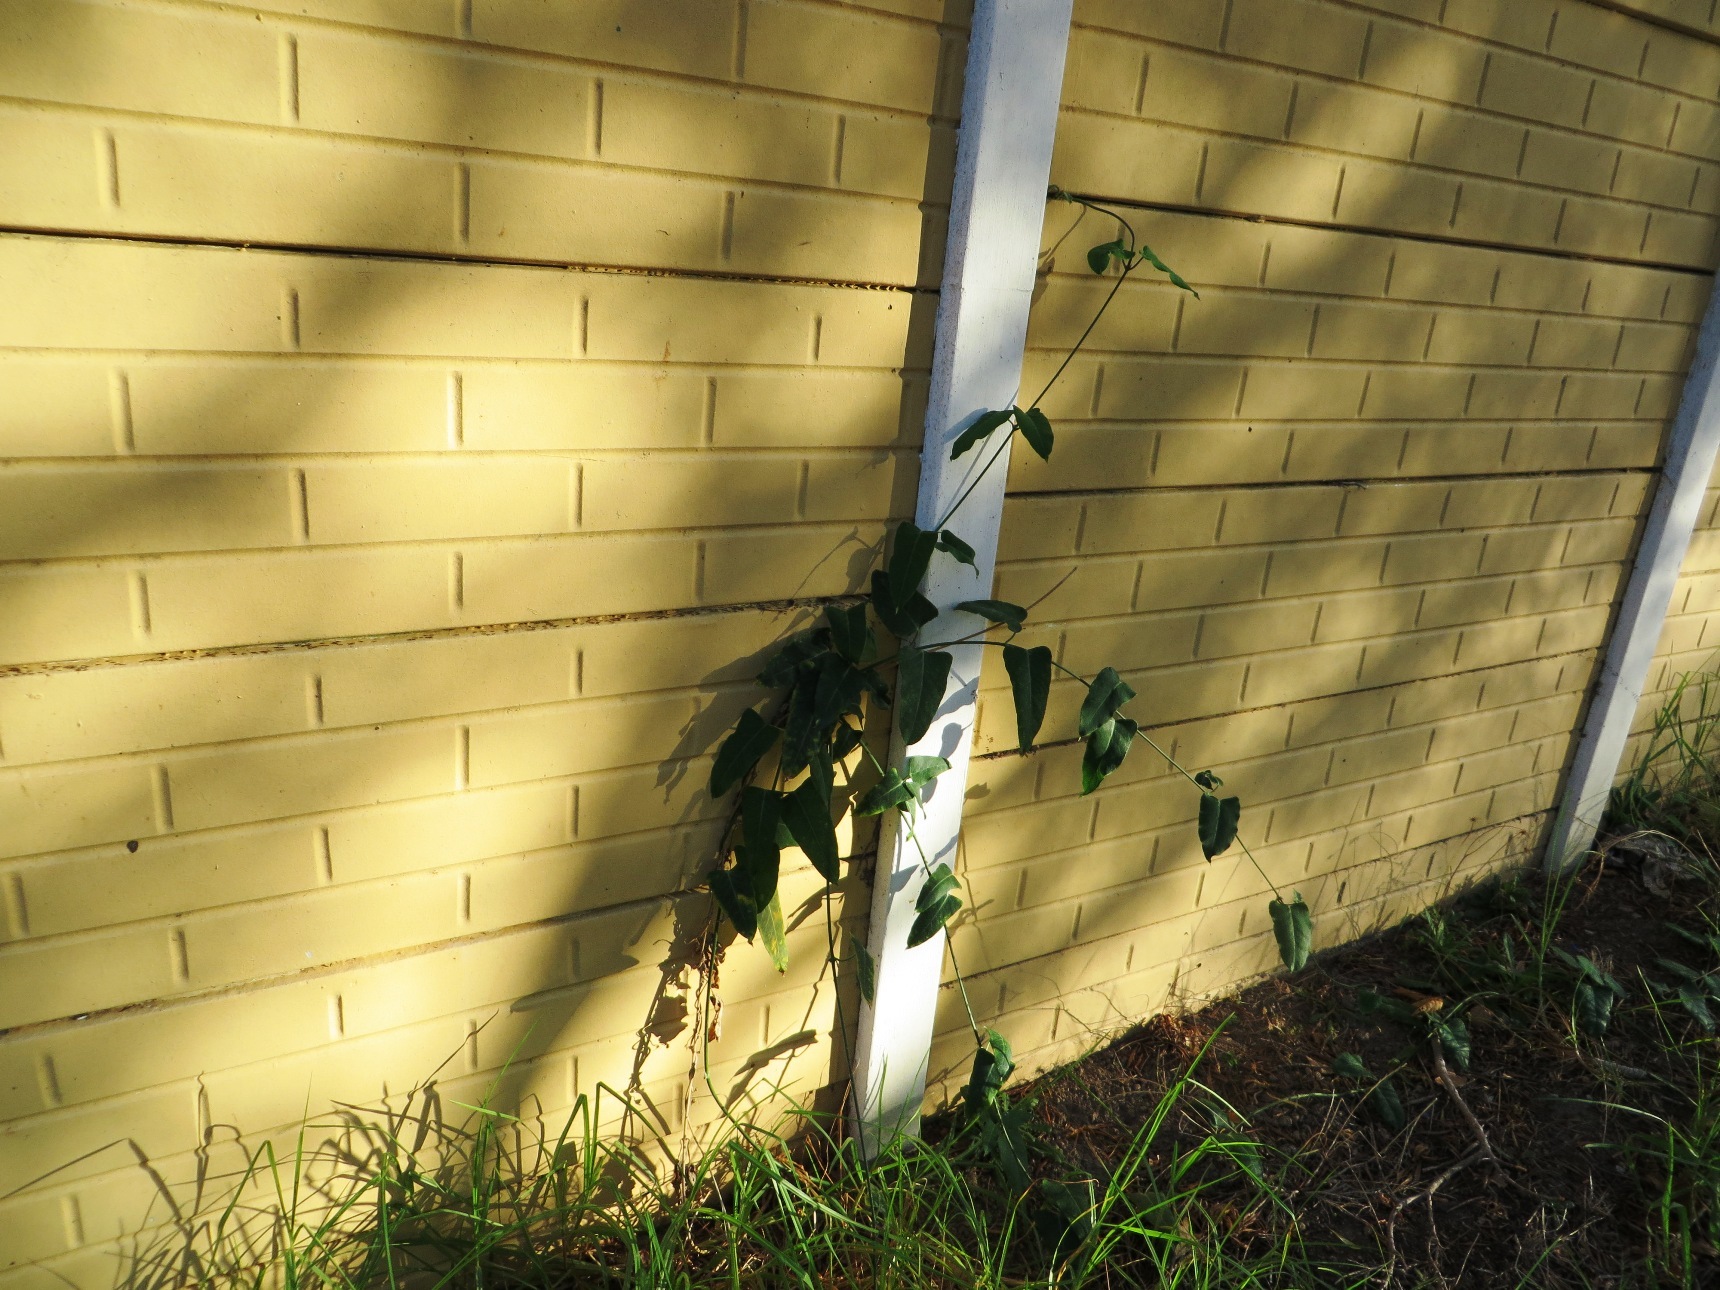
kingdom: Plantae
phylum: Tracheophyta
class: Magnoliopsida
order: Gentianales
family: Apocynaceae
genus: Araujia
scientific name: Araujia sericifera
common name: White bladderflower
